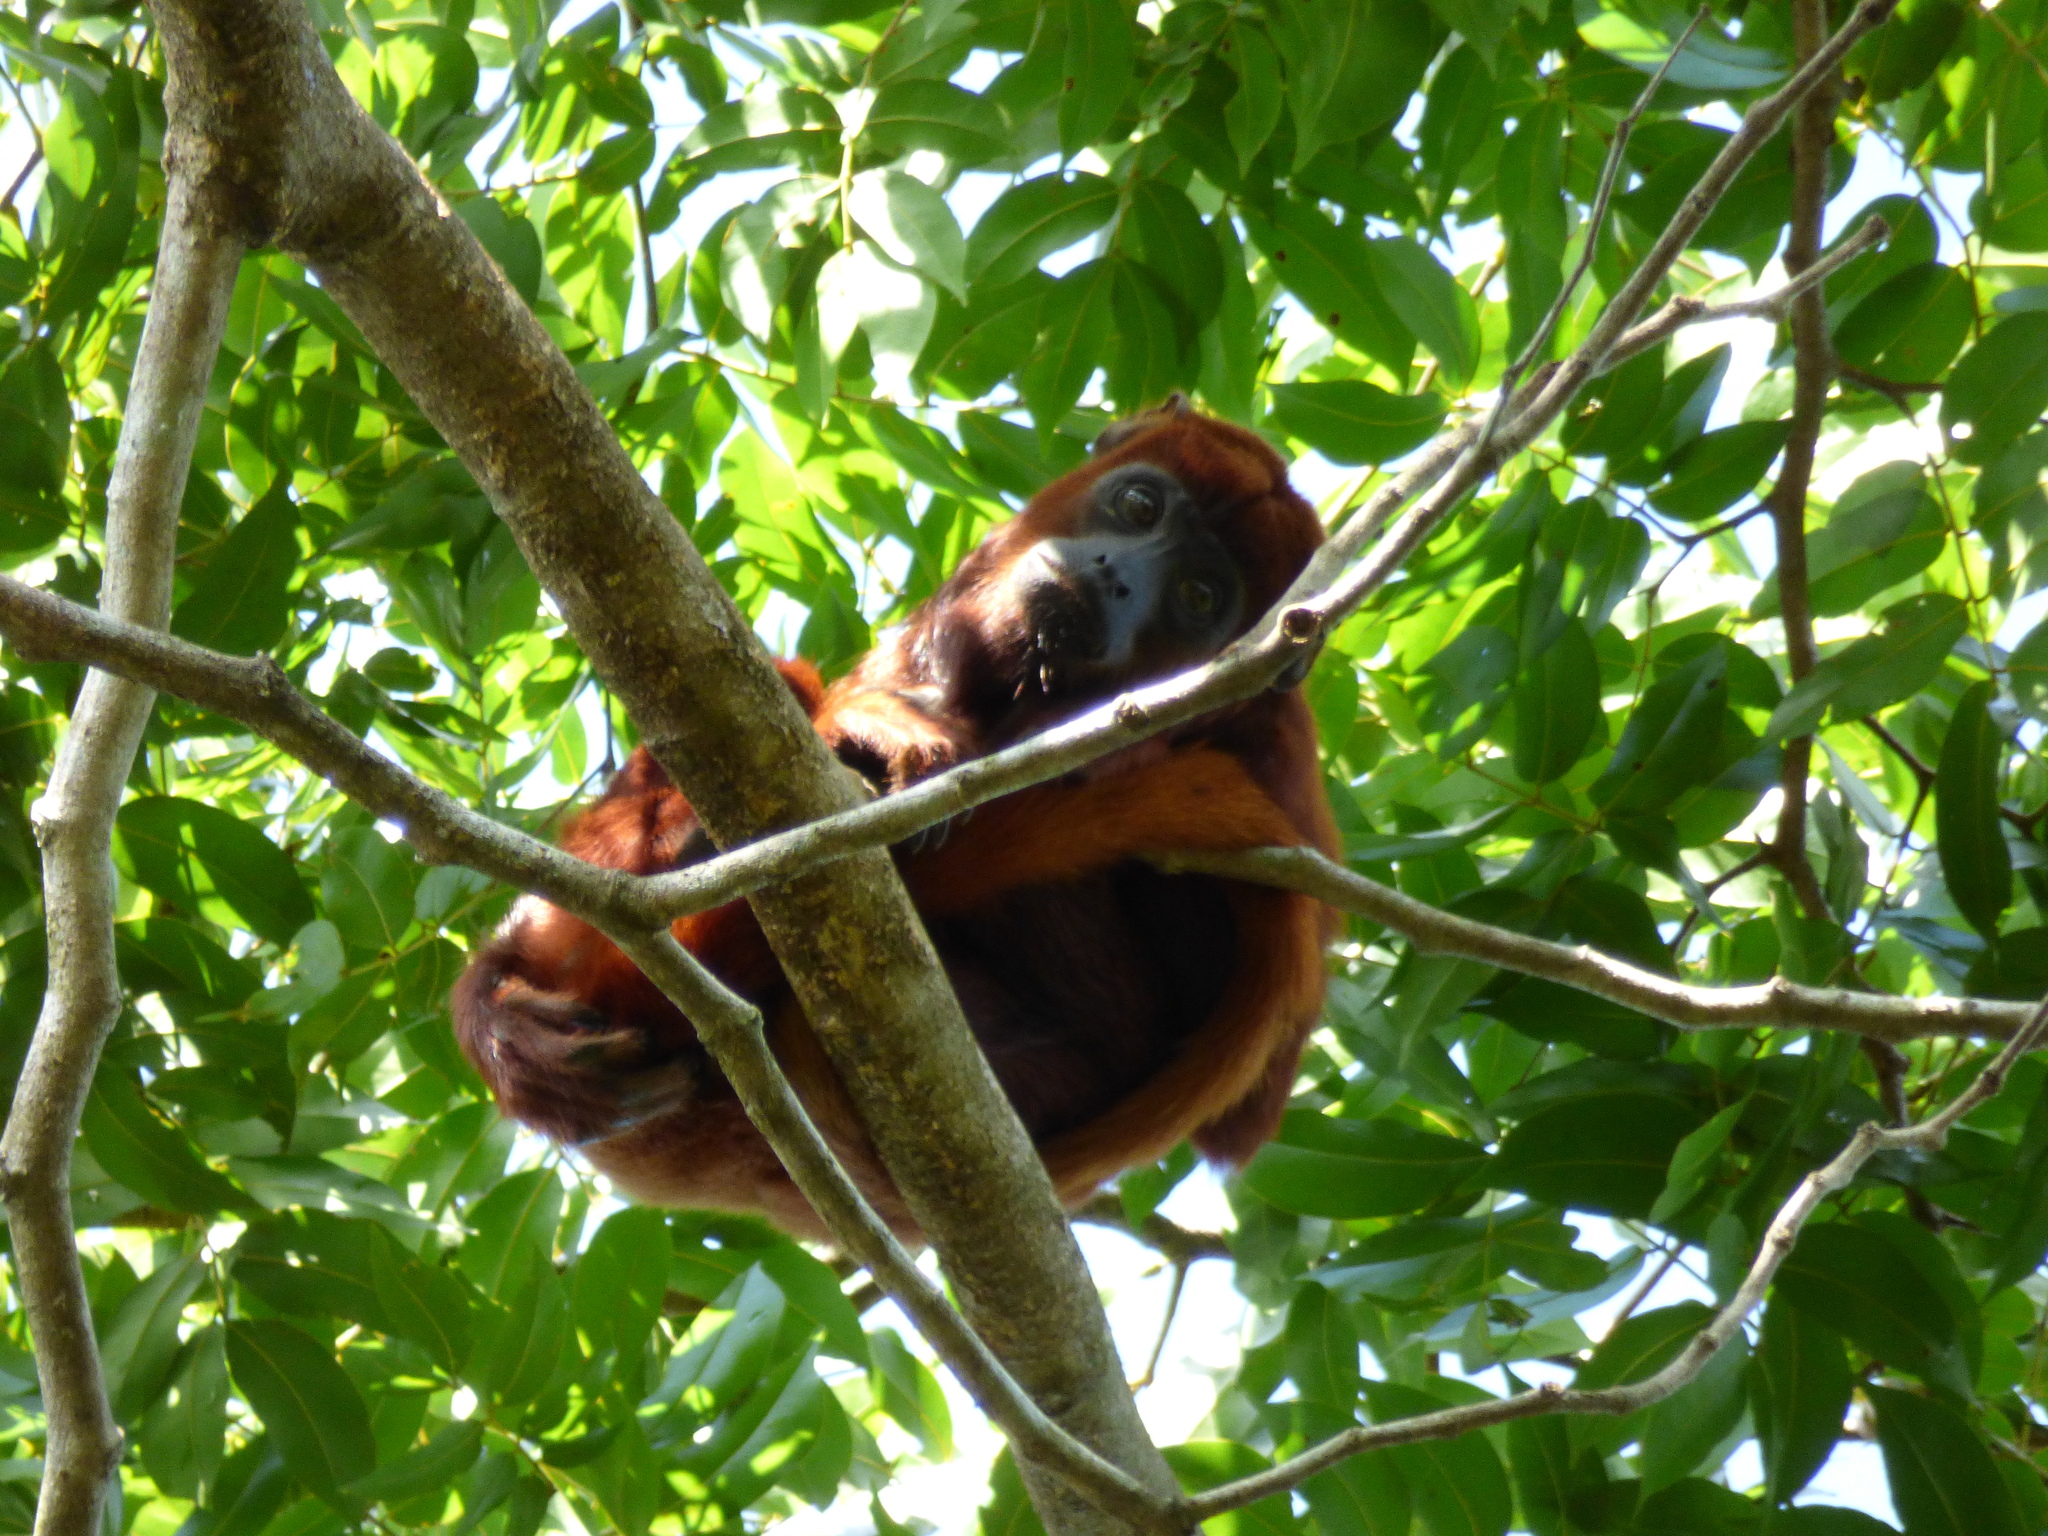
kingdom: Animalia
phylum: Chordata
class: Mammalia
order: Primates
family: Atelidae
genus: Alouatta
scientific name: Alouatta seniculus
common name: Venezuelan red howler
